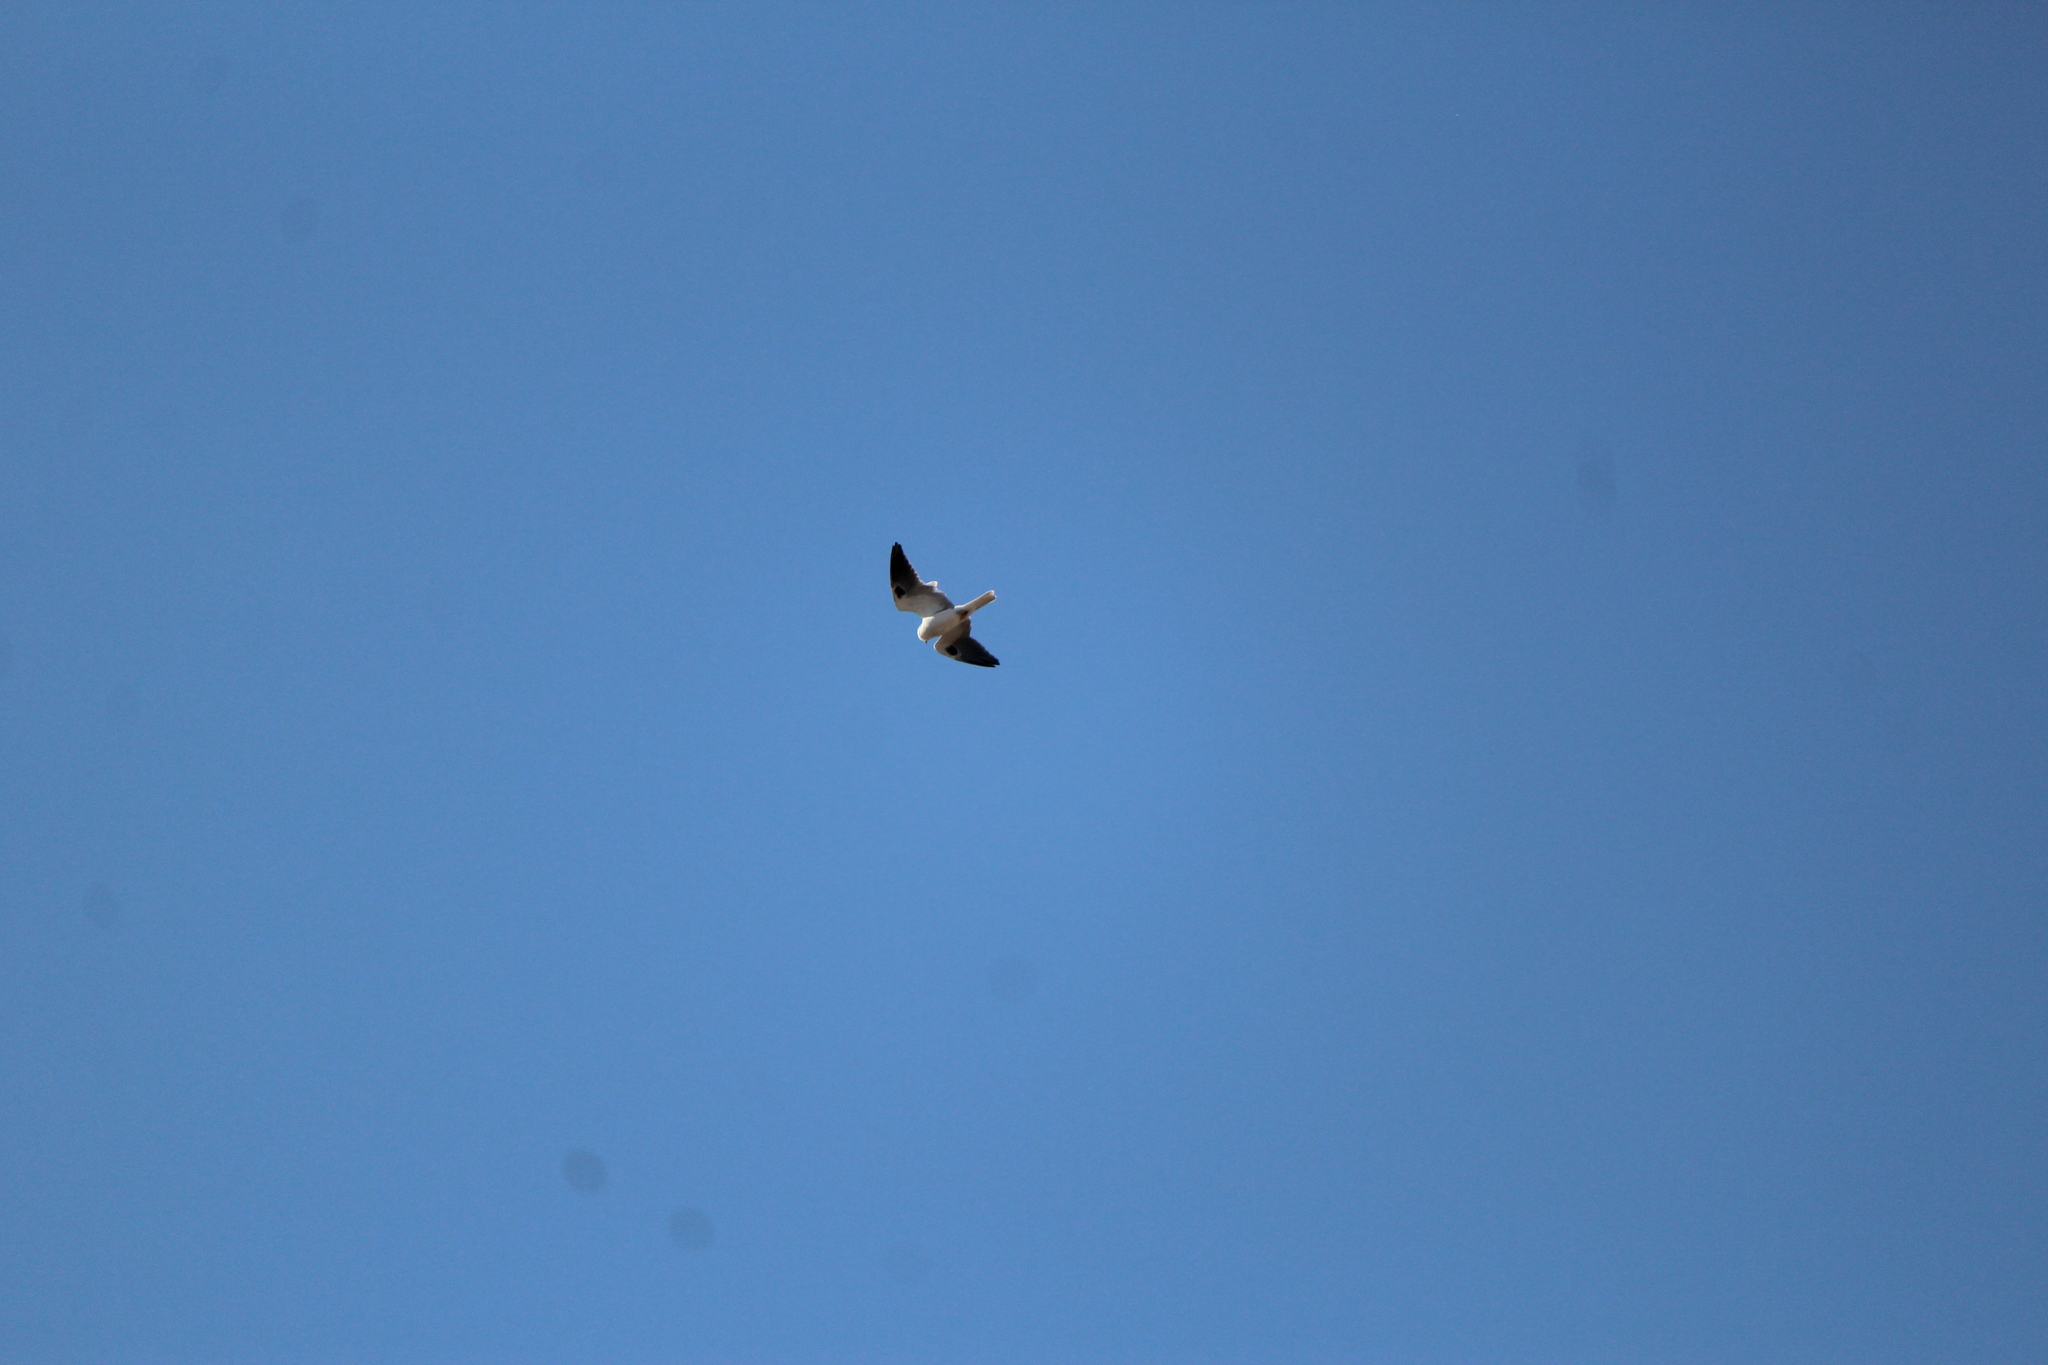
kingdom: Animalia
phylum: Chordata
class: Aves
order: Accipitriformes
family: Accipitridae
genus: Elanus
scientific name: Elanus leucurus
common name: White-tailed kite
